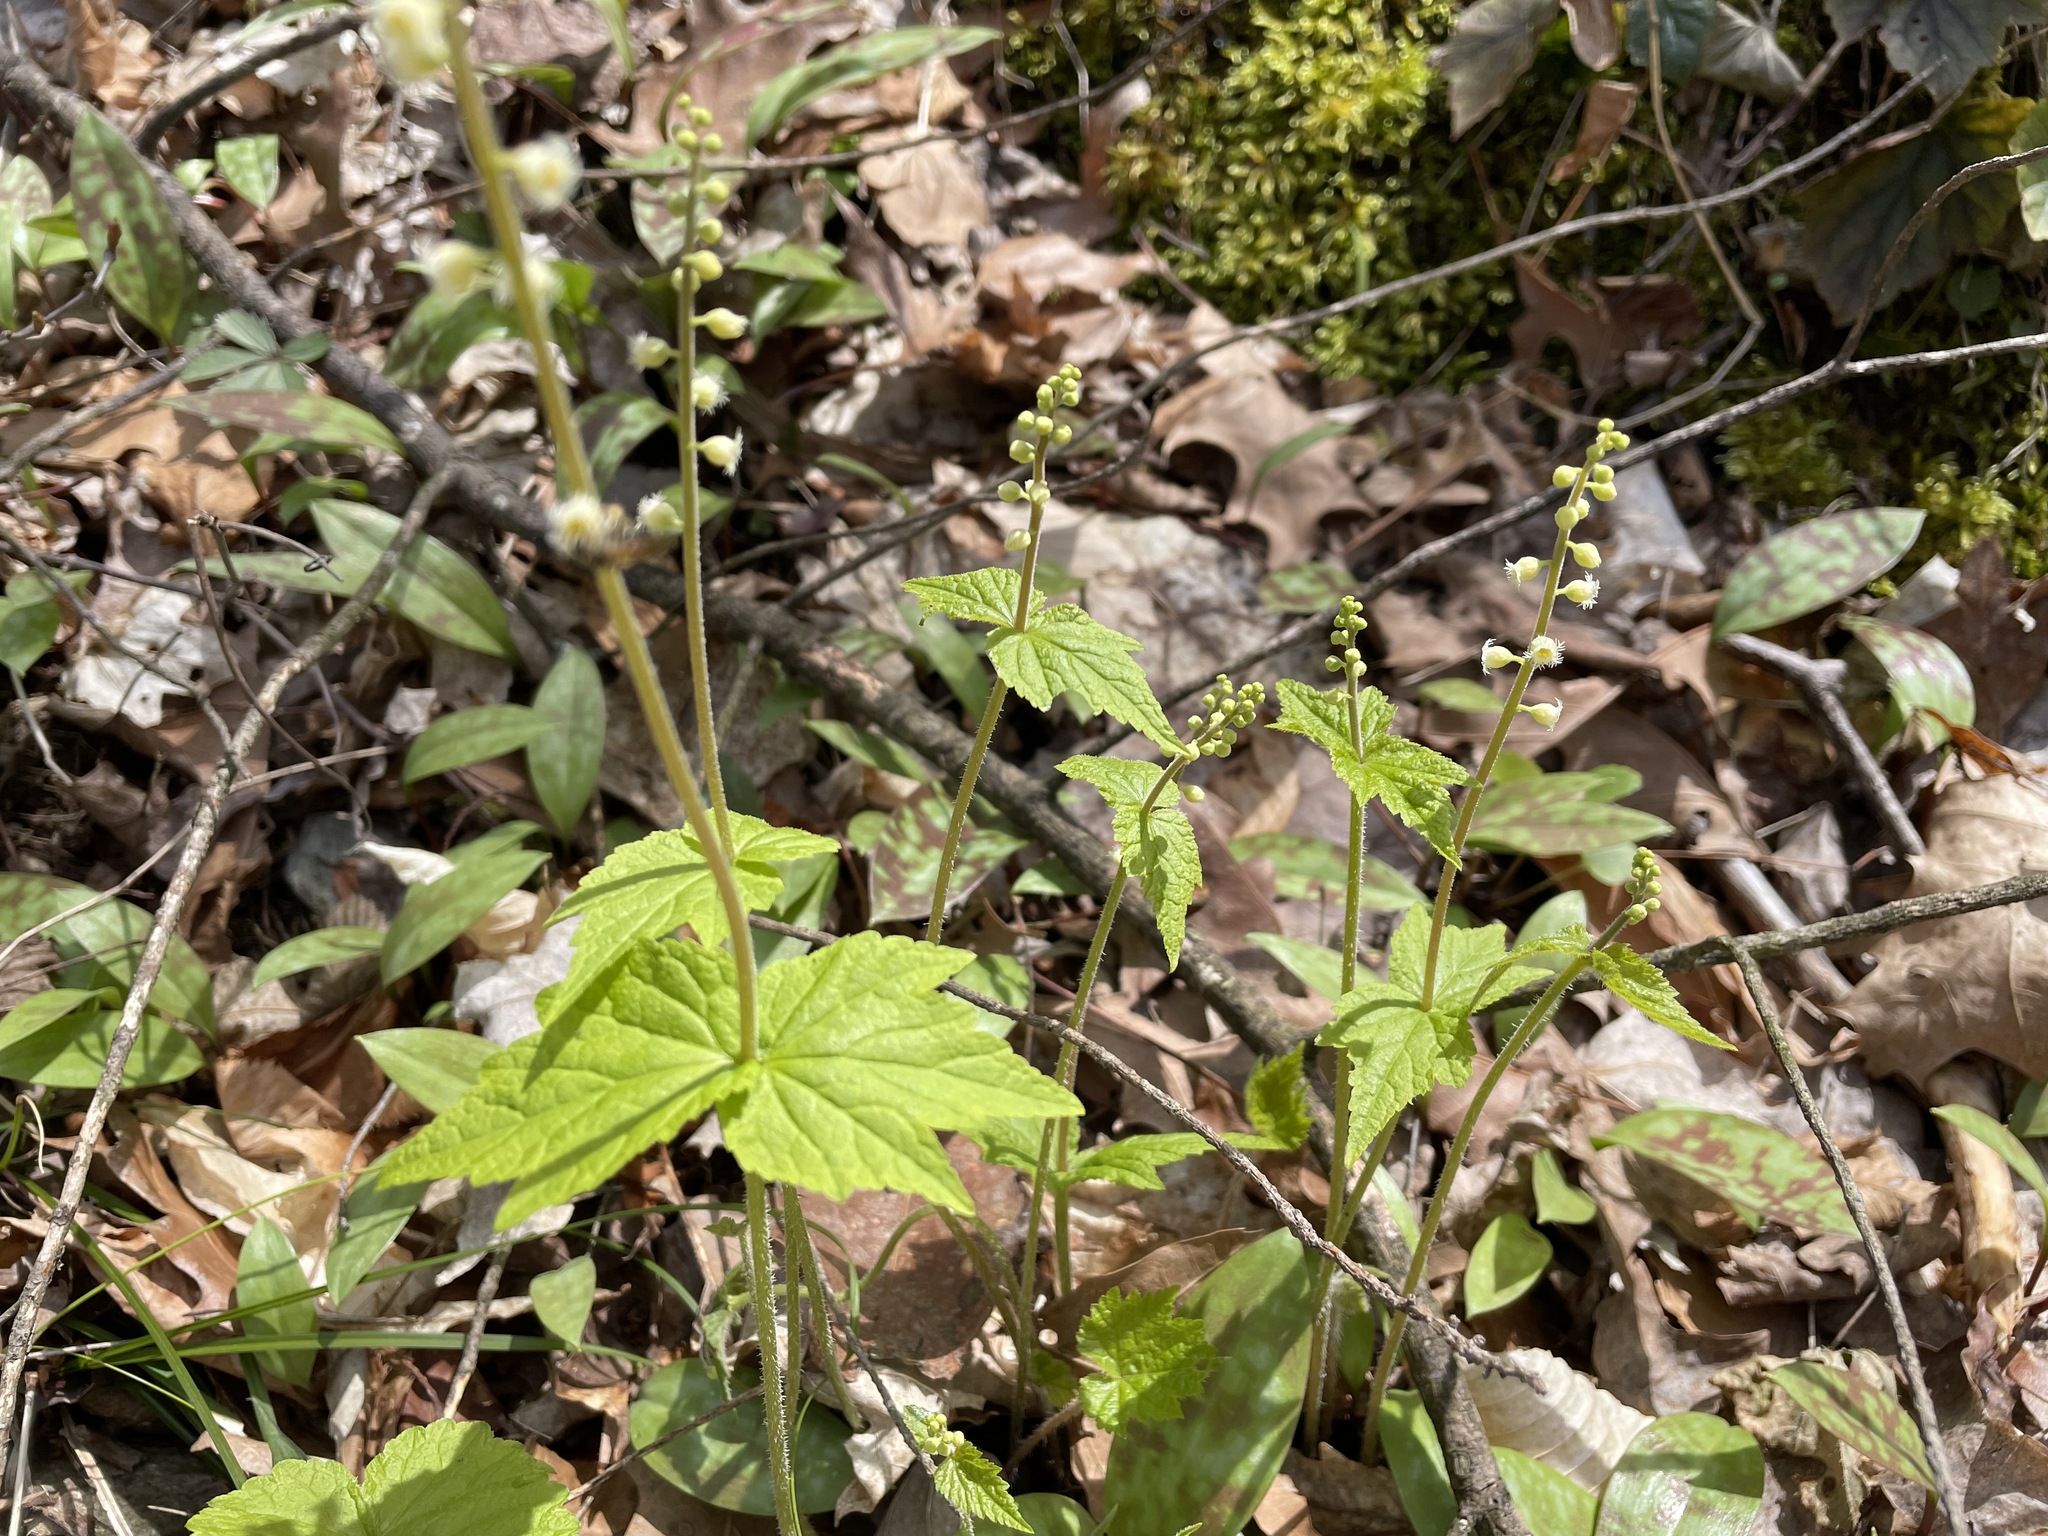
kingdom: Plantae
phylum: Tracheophyta
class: Magnoliopsida
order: Saxifragales
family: Saxifragaceae
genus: Mitella
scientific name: Mitella diphylla
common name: Coolwort
